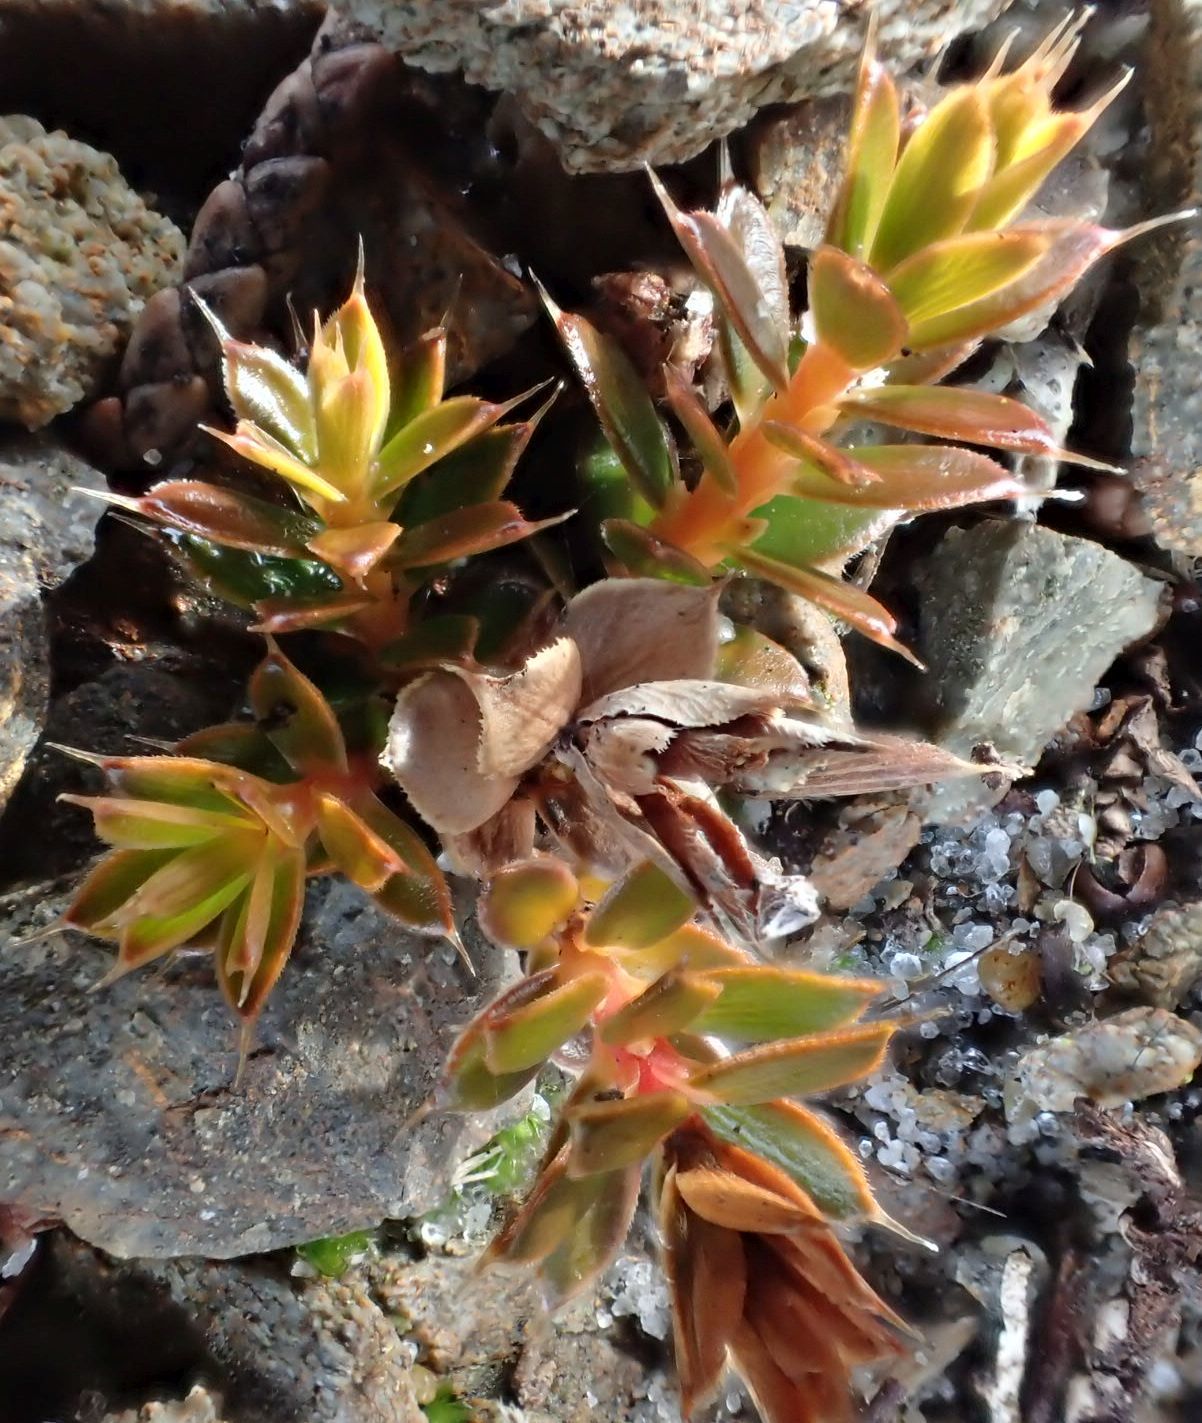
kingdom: Plantae
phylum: Tracheophyta
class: Magnoliopsida
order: Ericales
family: Ericaceae
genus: Styphelia
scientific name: Styphelia nesophila
